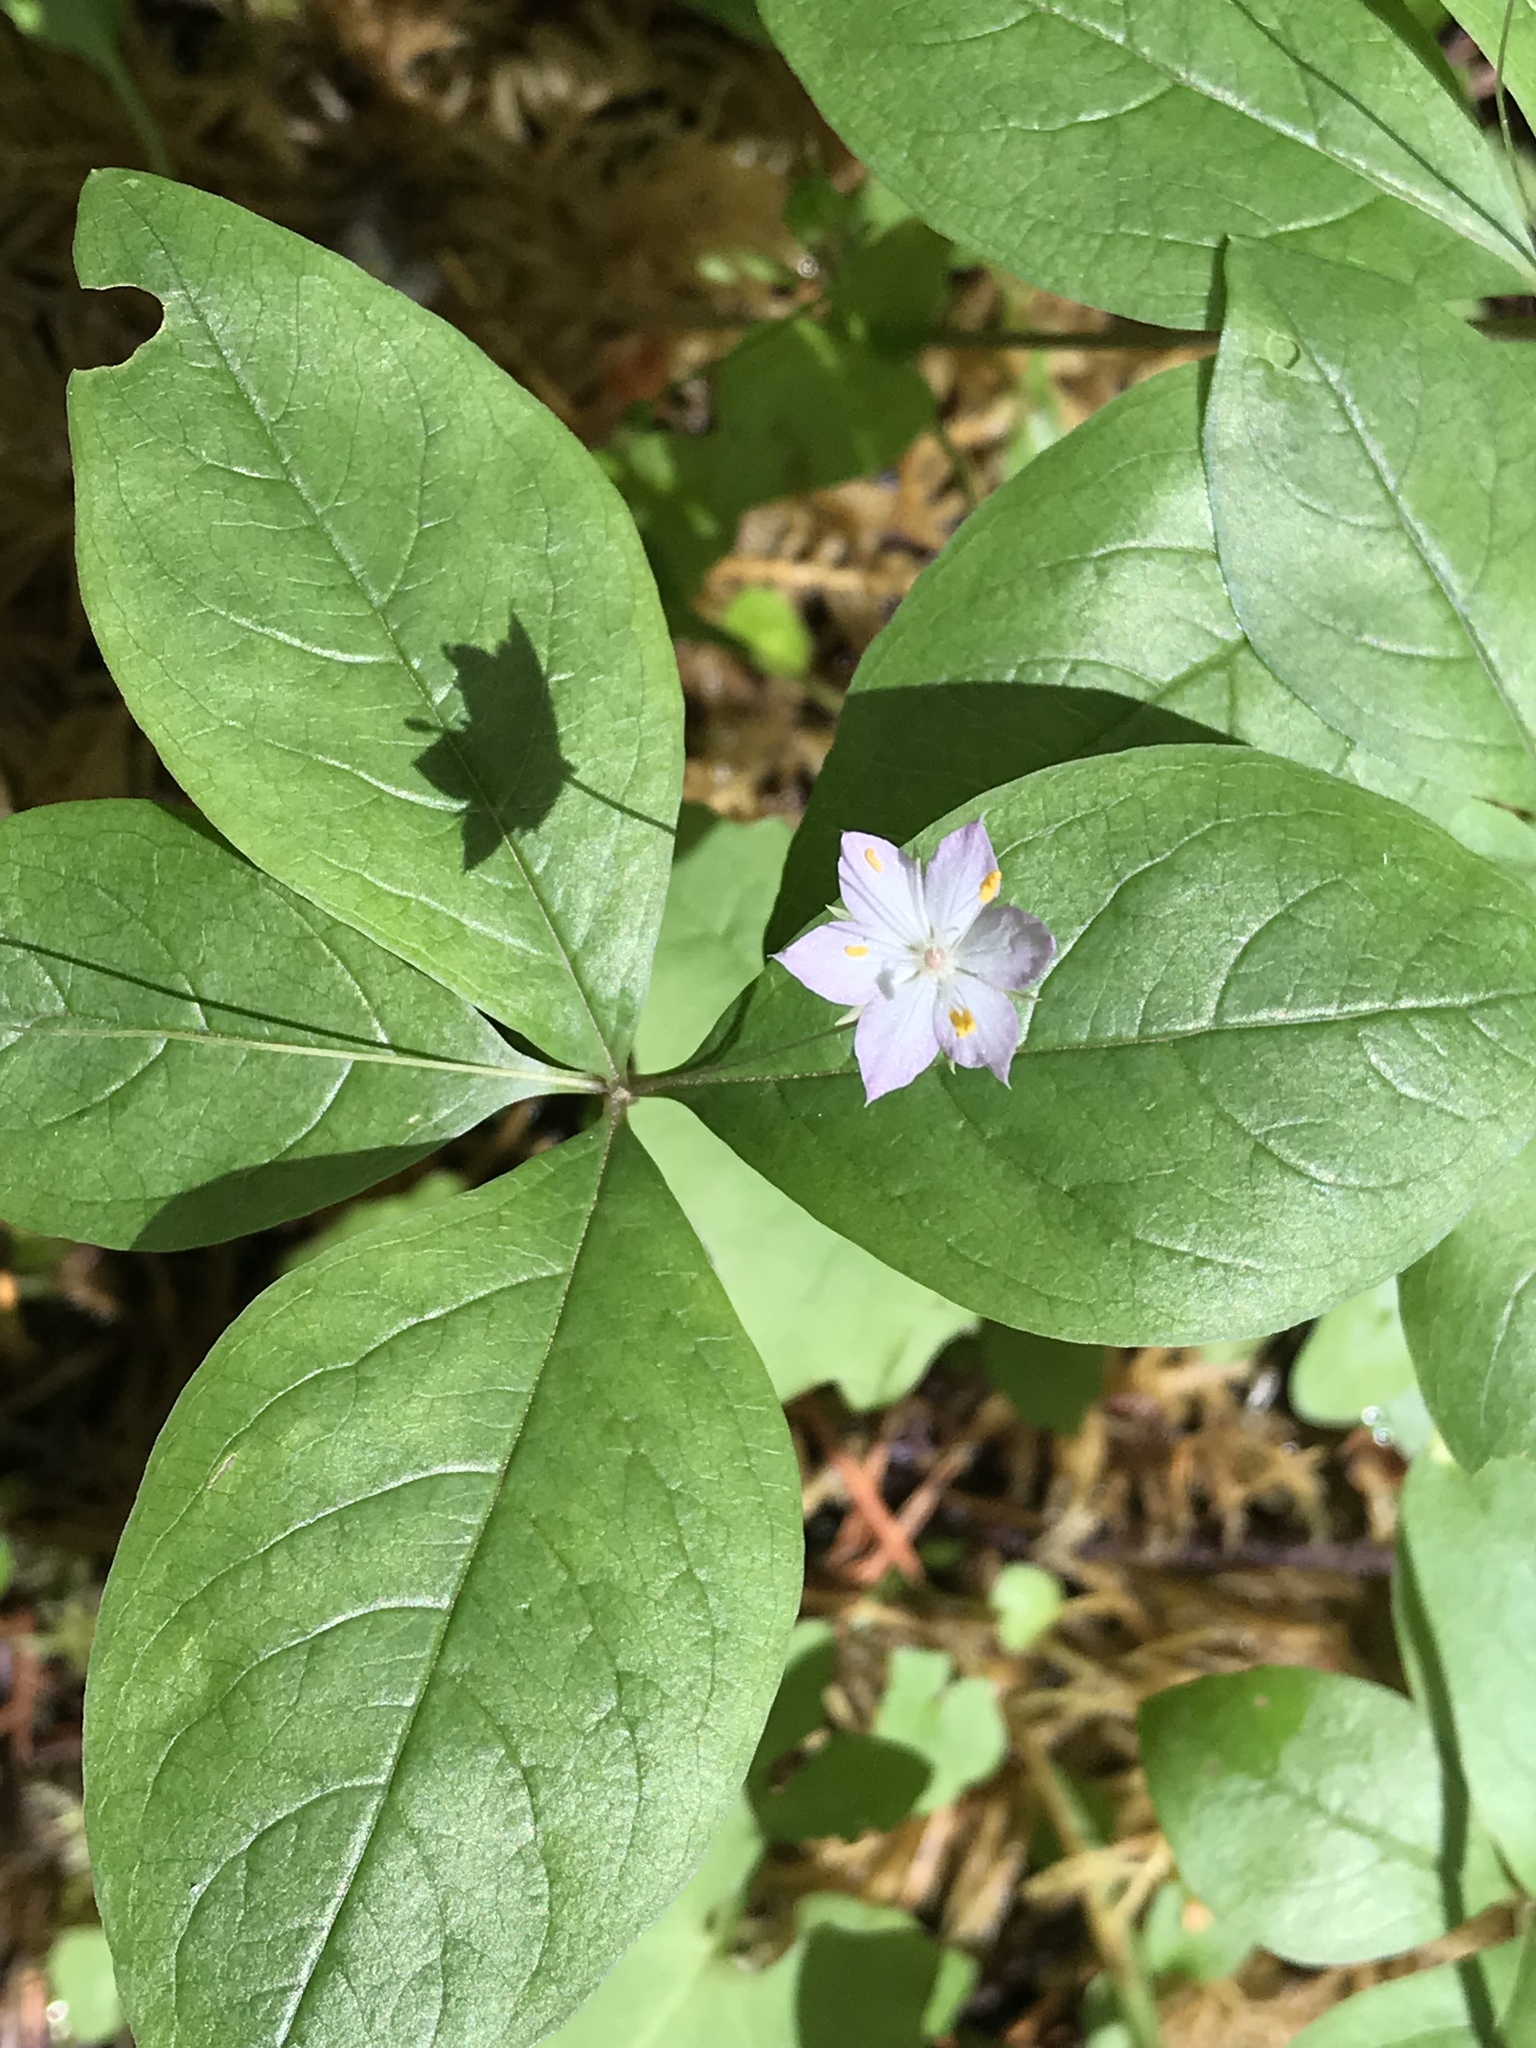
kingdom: Plantae
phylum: Tracheophyta
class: Magnoliopsida
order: Ericales
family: Primulaceae
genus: Lysimachia
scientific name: Lysimachia latifolia
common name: Pacific starflower
